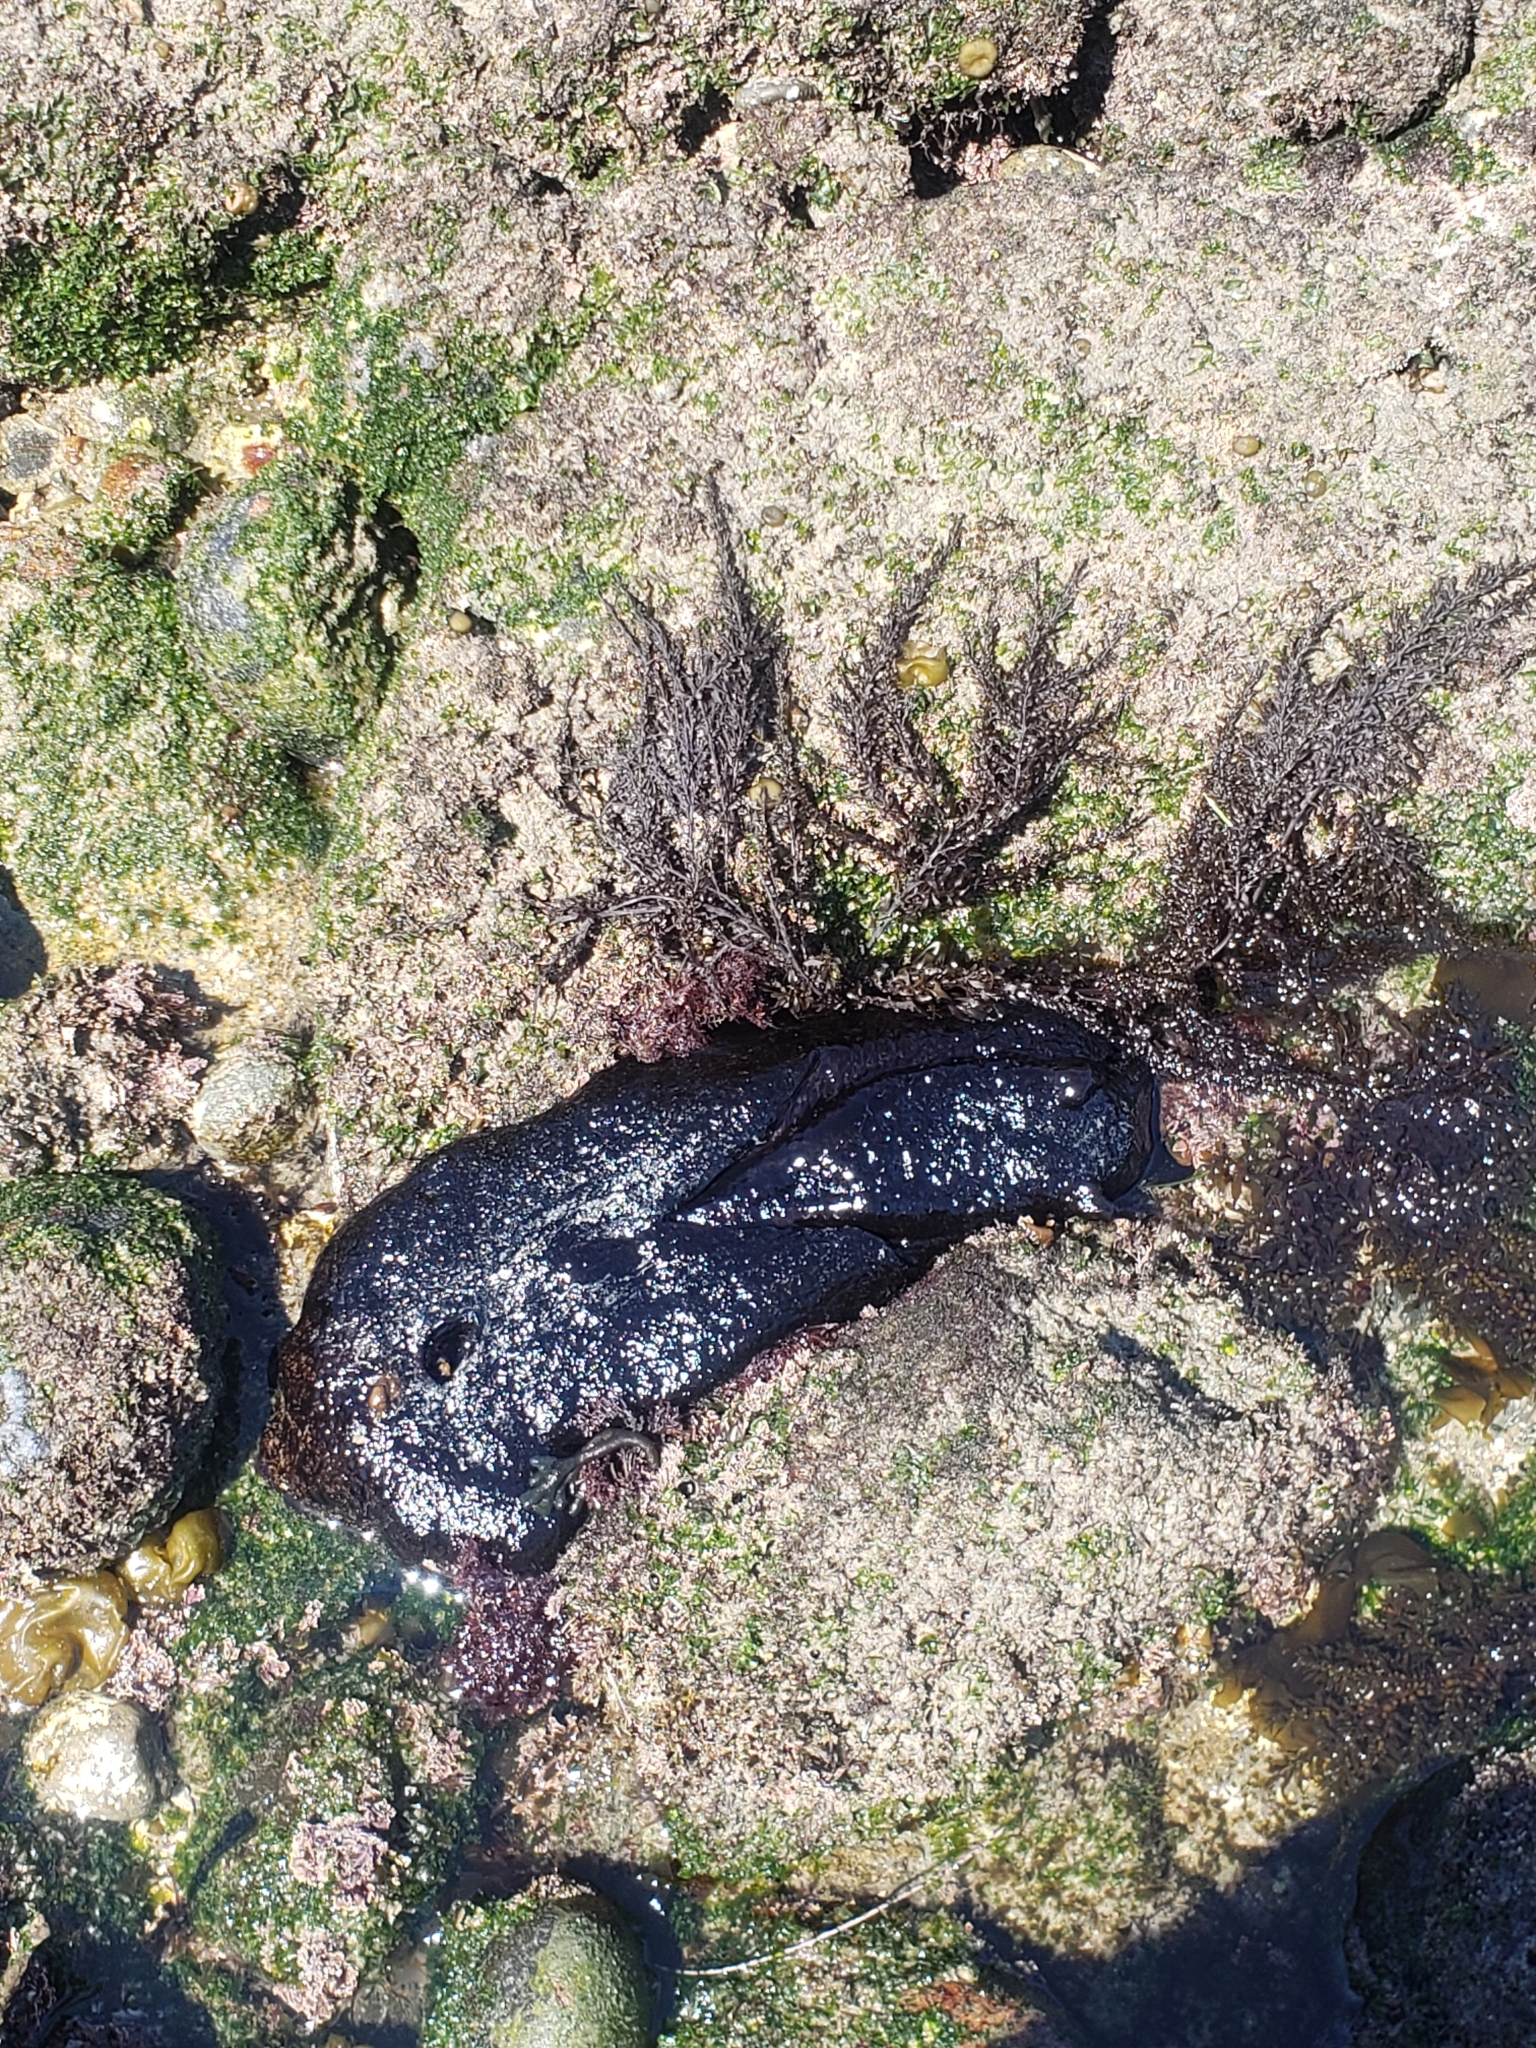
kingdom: Animalia
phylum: Mollusca
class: Gastropoda
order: Aplysiida
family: Aplysiidae
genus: Aplysia
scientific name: Aplysia vaccaria
